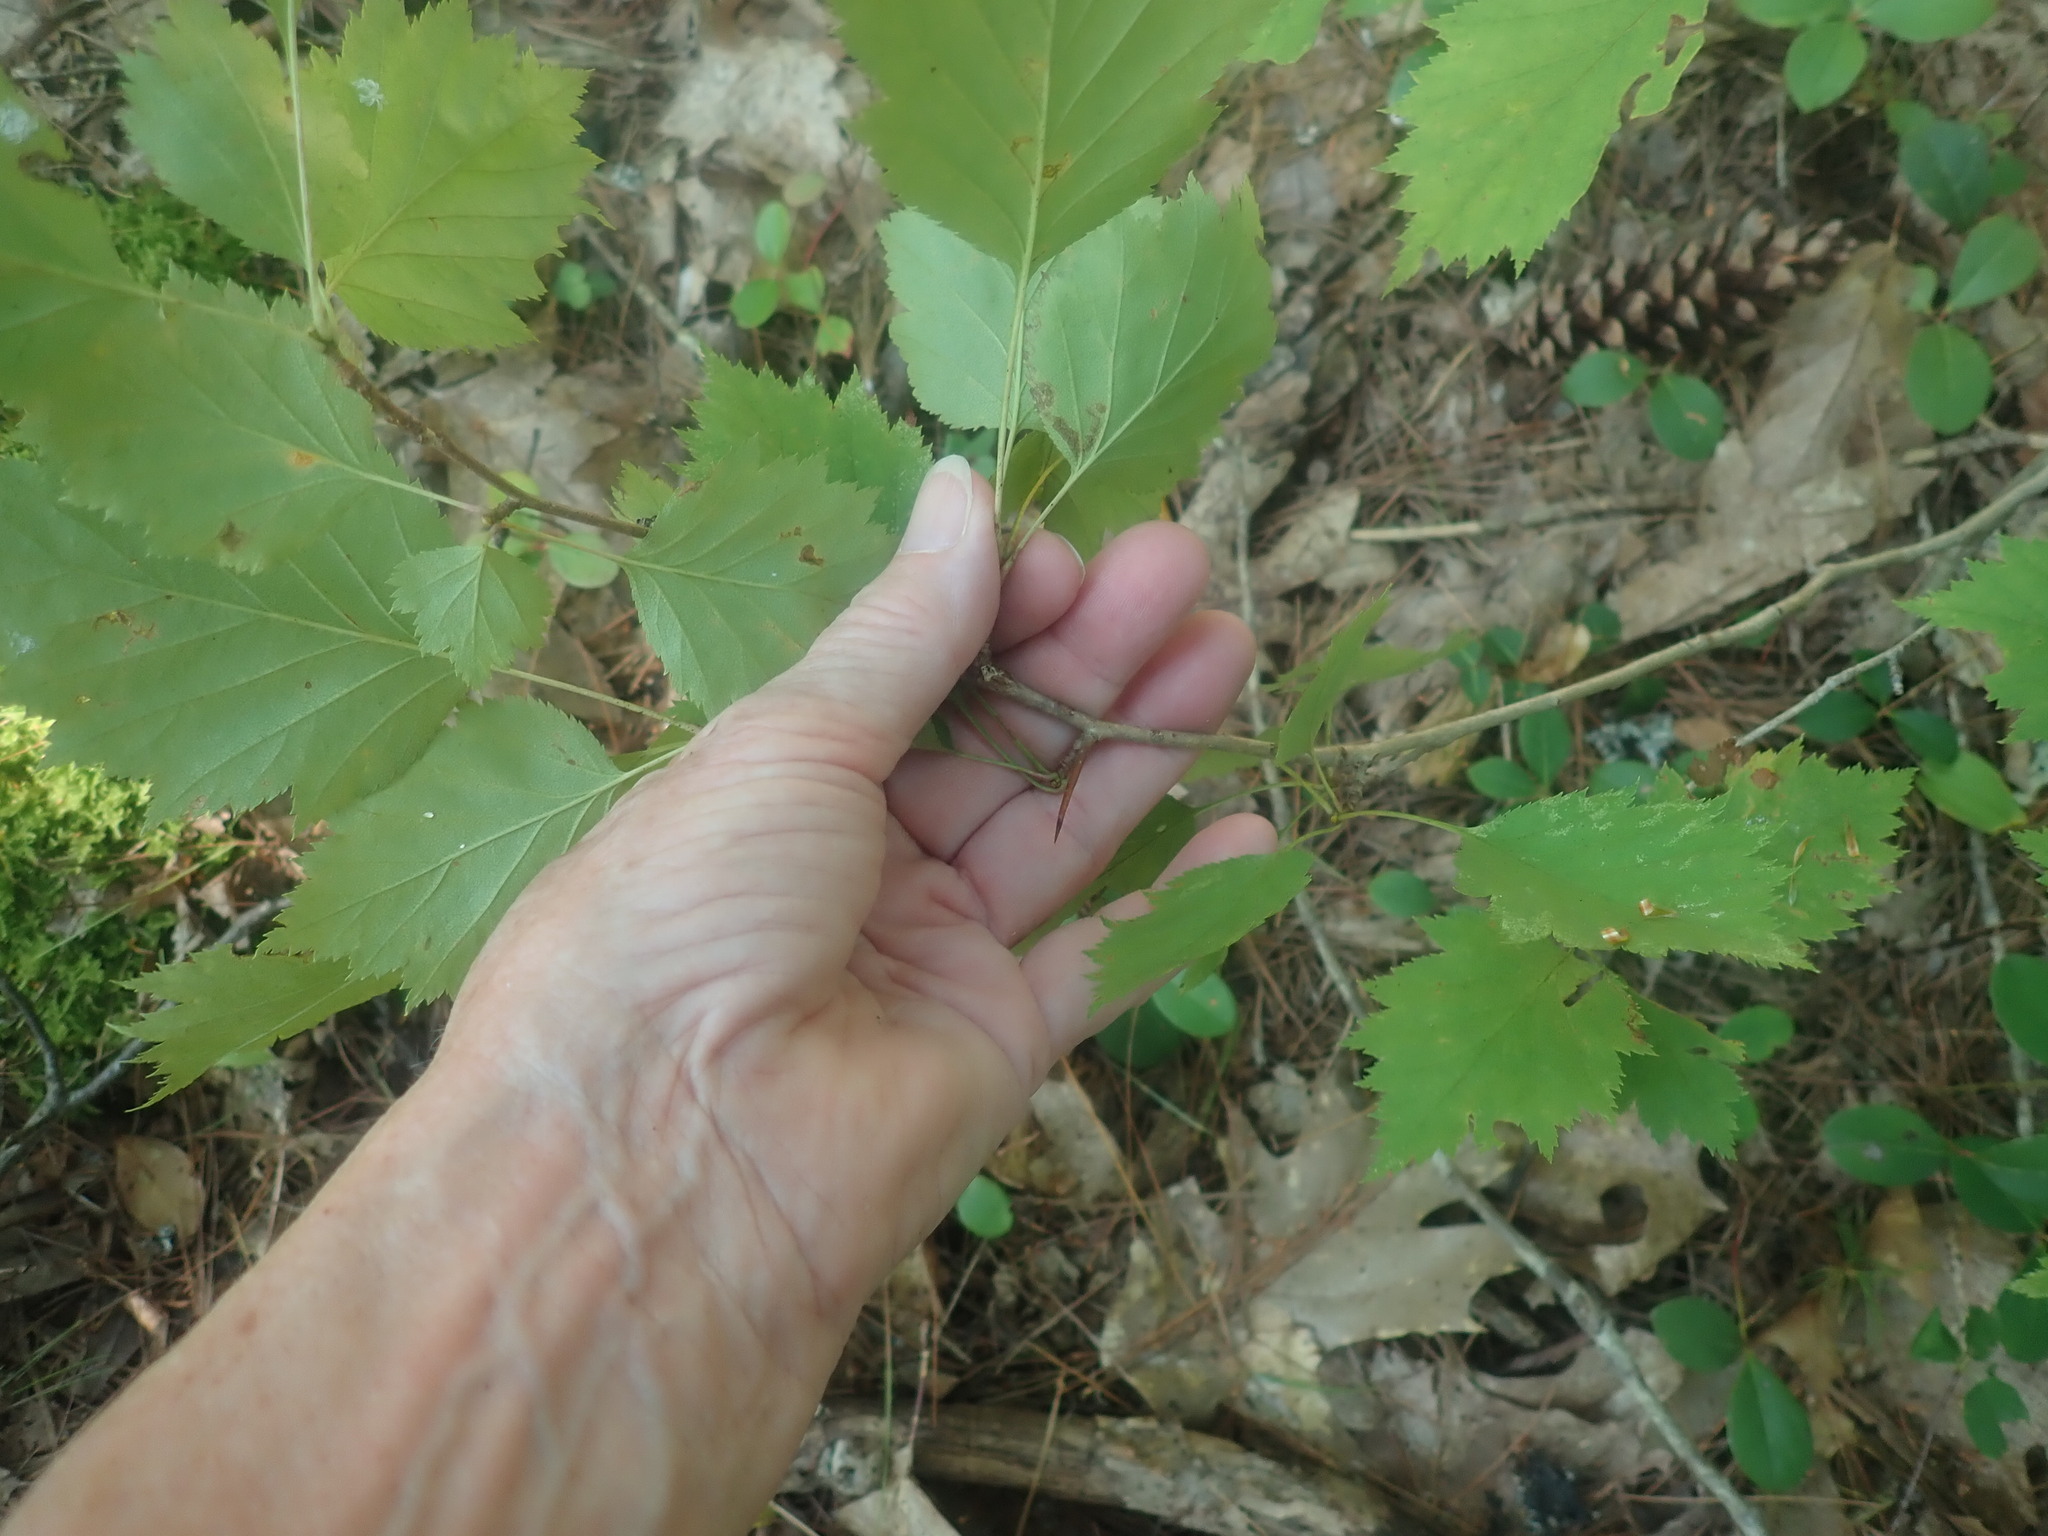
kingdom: Plantae
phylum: Tracheophyta
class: Magnoliopsida
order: Rosales
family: Rosaceae
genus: Crataegus
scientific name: Crataegus
